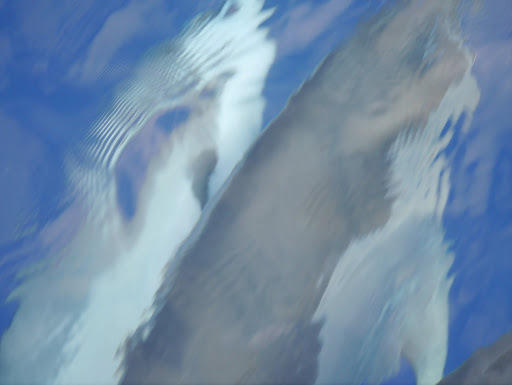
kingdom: Animalia
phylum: Chordata
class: Mammalia
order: Cetacea
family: Delphinidae
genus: Stenella
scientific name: Stenella longirostris
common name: Spinner dolphin
